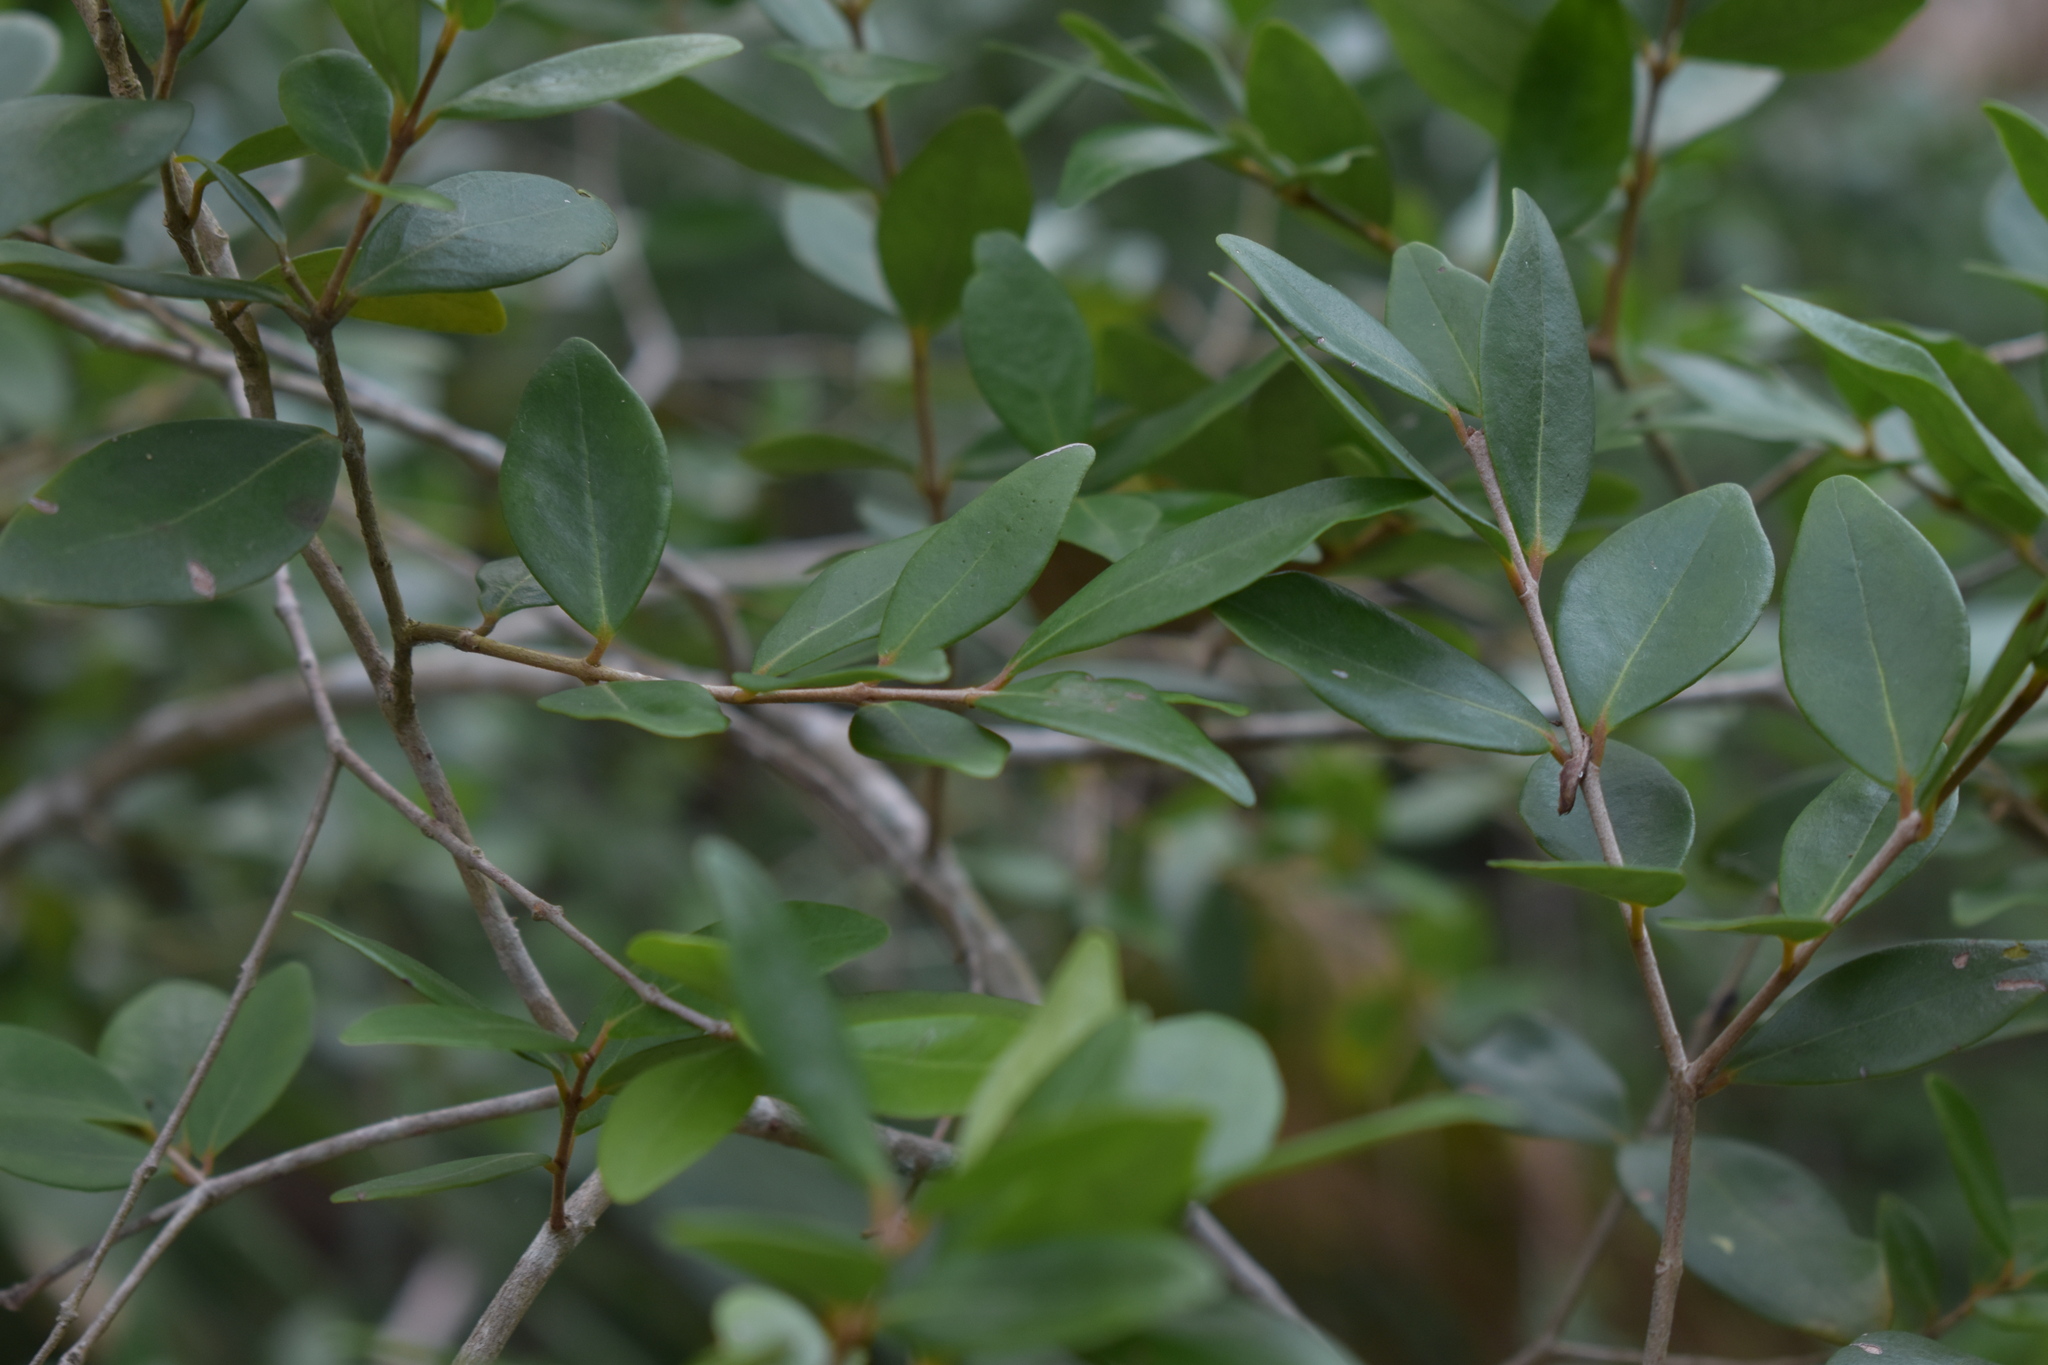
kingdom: Plantae
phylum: Tracheophyta
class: Magnoliopsida
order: Myrtales
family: Myrtaceae
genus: Eugenia
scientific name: Eugenia foetida
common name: White wattling
